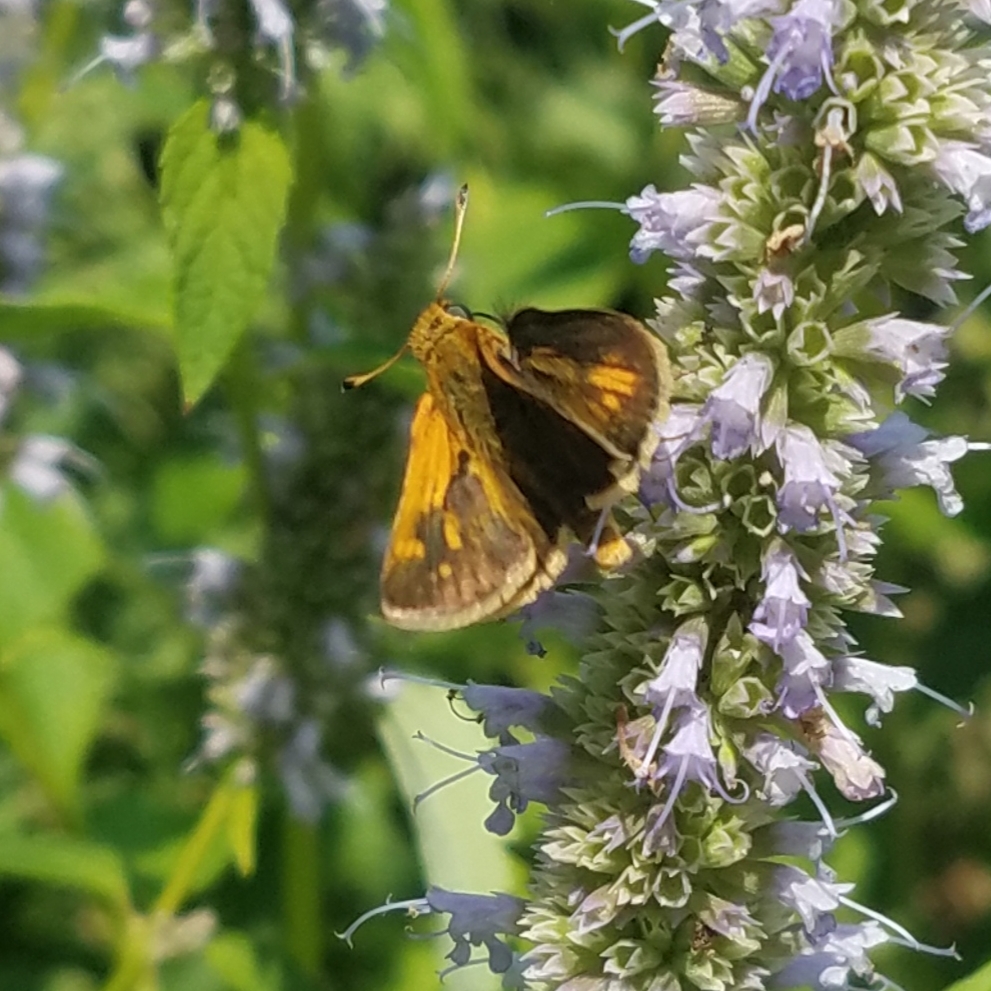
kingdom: Animalia
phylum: Arthropoda
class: Insecta
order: Lepidoptera
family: Hesperiidae
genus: Polites
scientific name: Polites themistocles
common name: Tawny-edged skipper
